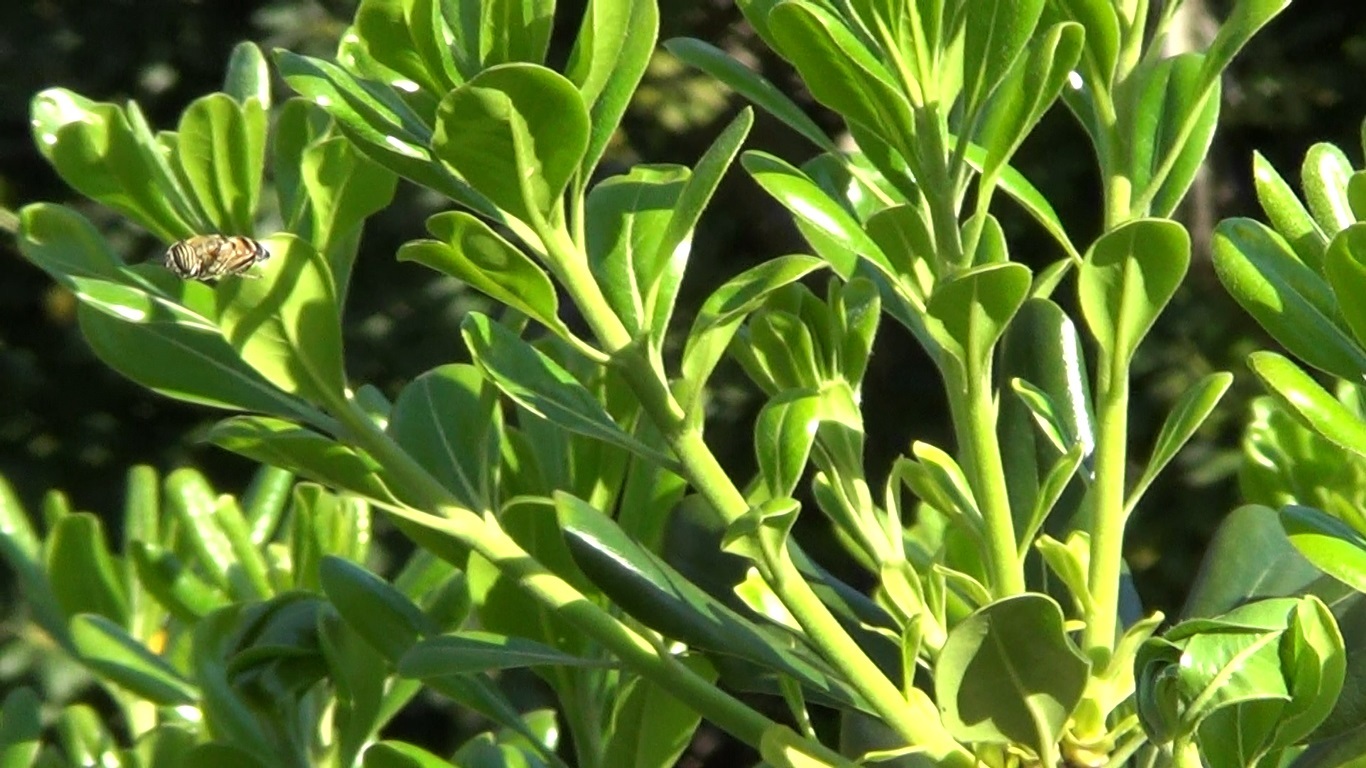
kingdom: Animalia
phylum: Arthropoda
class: Insecta
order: Diptera
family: Syrphidae
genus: Eristalinus
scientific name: Eristalinus taeniops
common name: Syrphid fly
